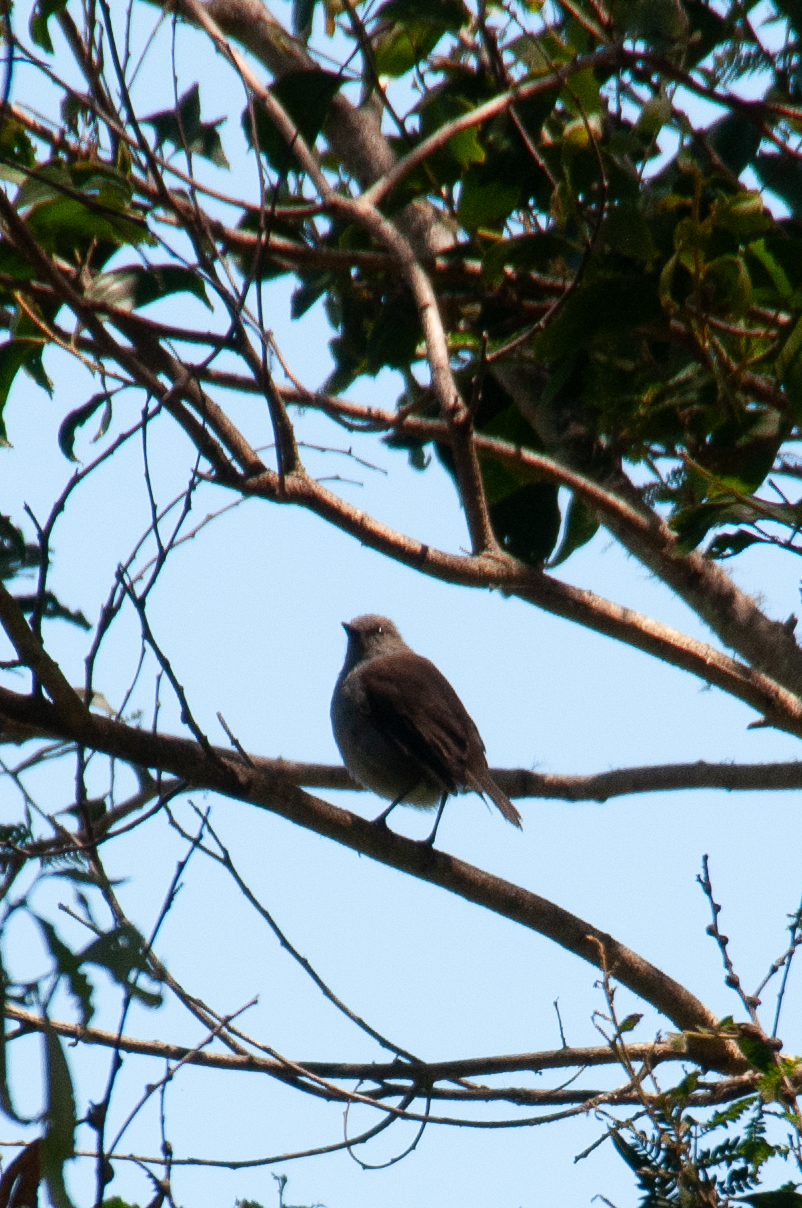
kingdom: Animalia
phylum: Chordata
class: Aves
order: Passeriformes
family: Turdidae
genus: Myadestes
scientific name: Myadestes obscurus
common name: Omao
